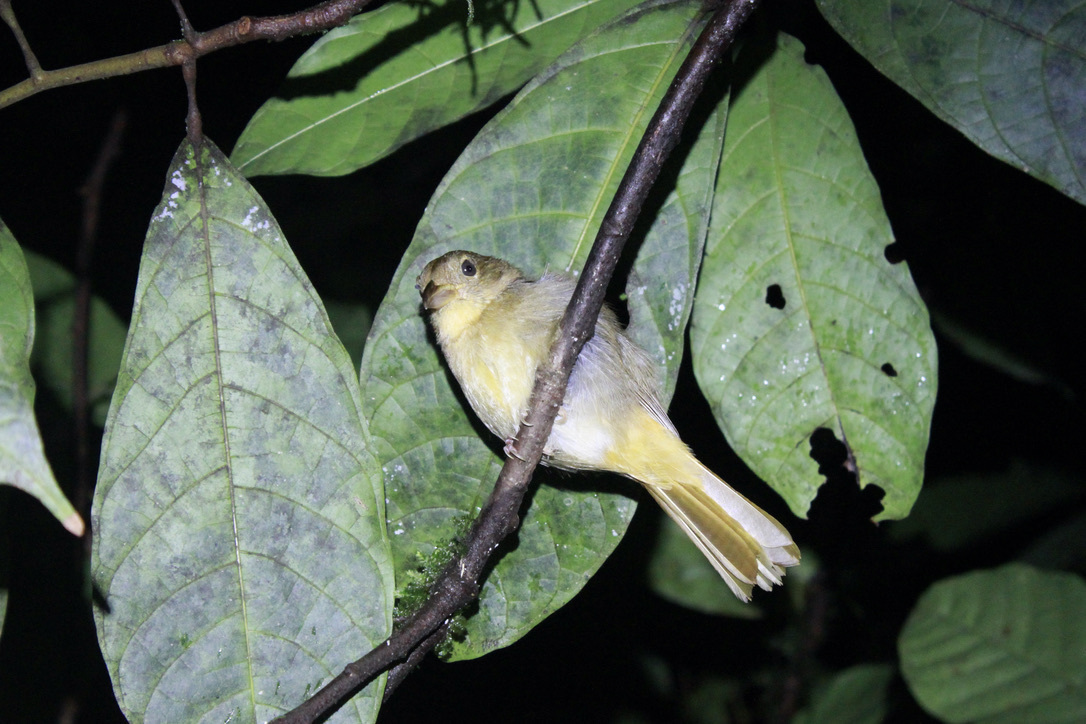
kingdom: Animalia
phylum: Chordata
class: Aves
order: Passeriformes
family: Cardinalidae
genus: Piranga
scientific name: Piranga flava
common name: Red tanager
